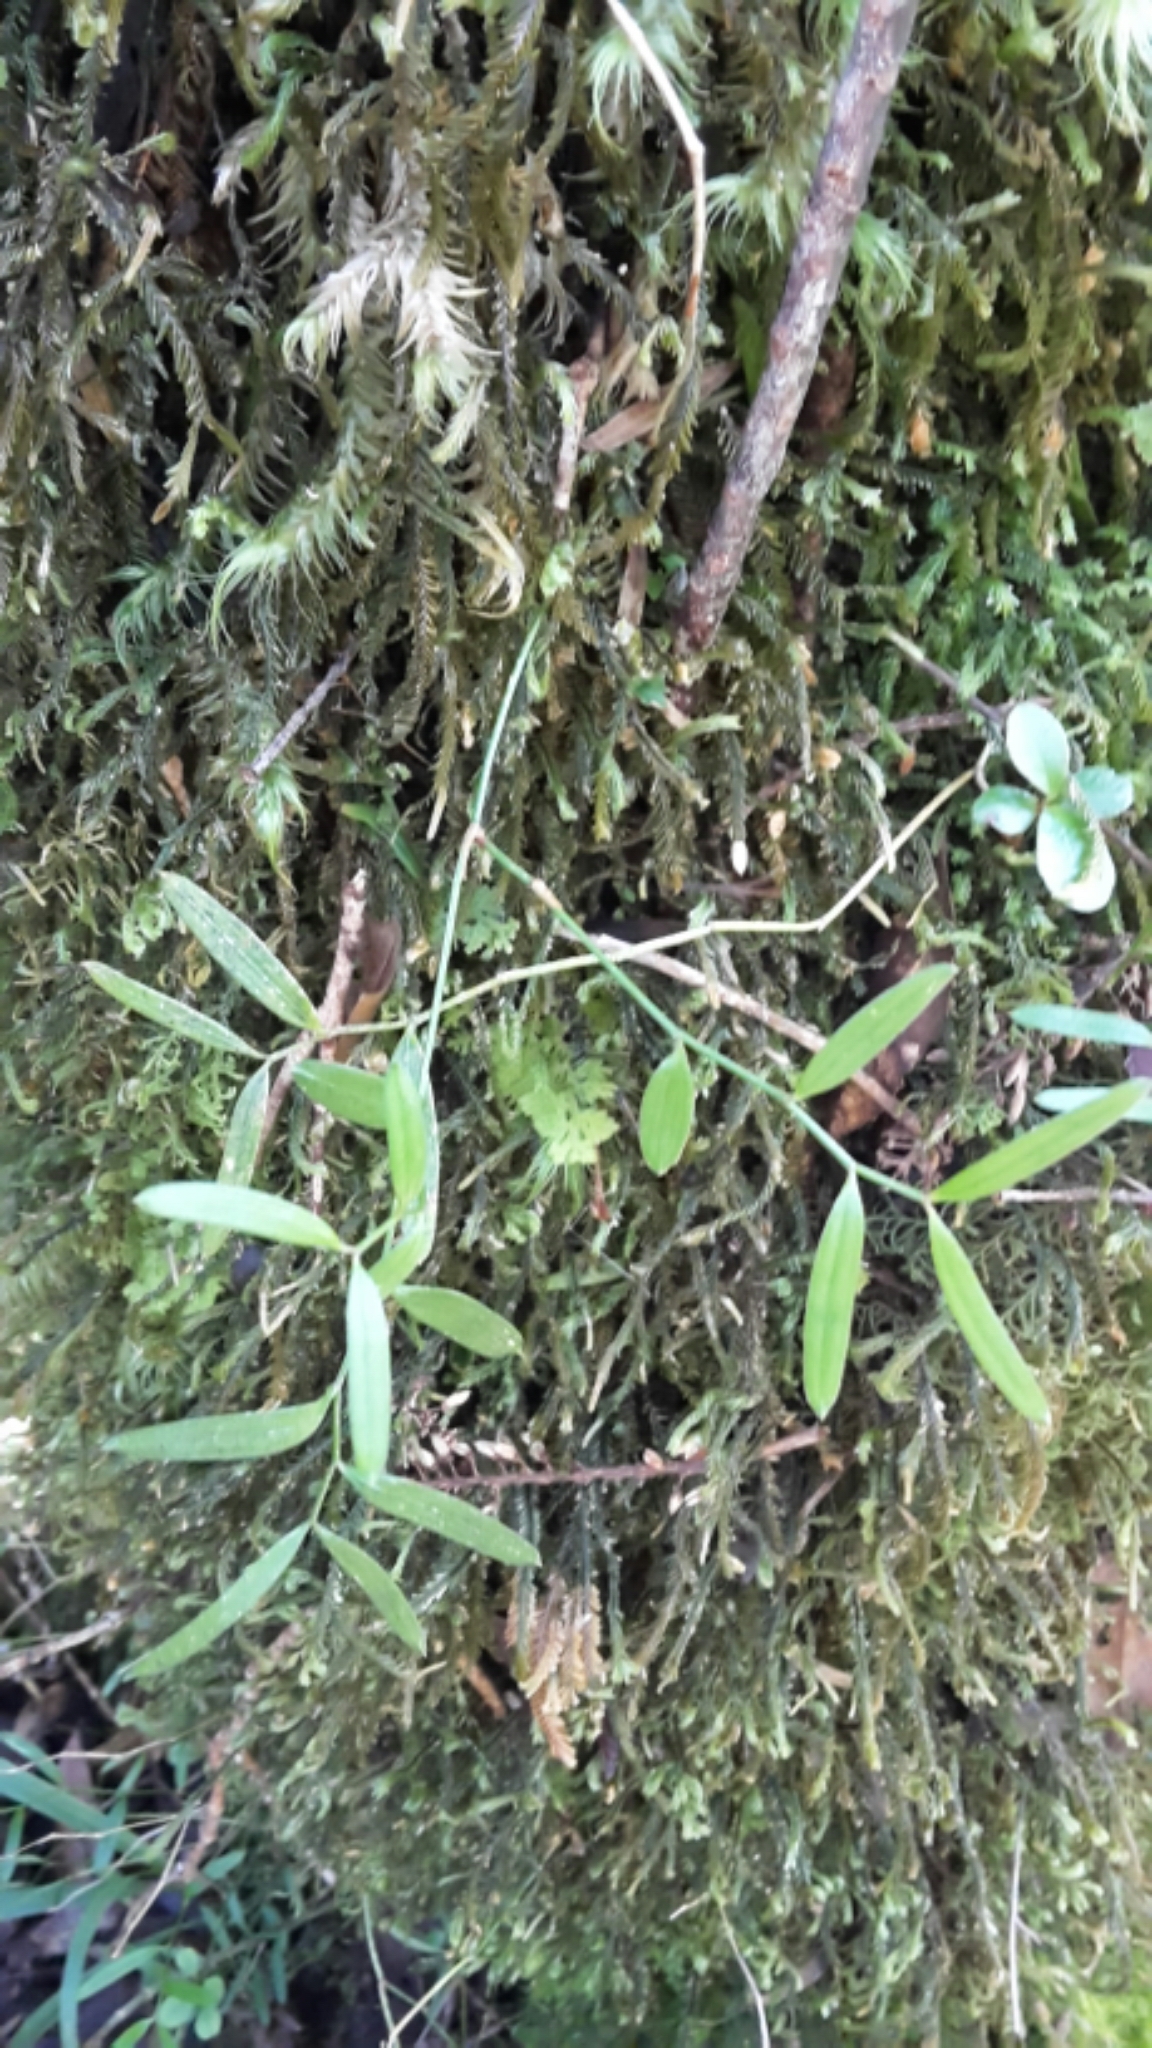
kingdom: Plantae
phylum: Tracheophyta
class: Liliopsida
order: Liliales
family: Alstroemeriaceae
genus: Luzuriaga
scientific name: Luzuriaga parviflora
